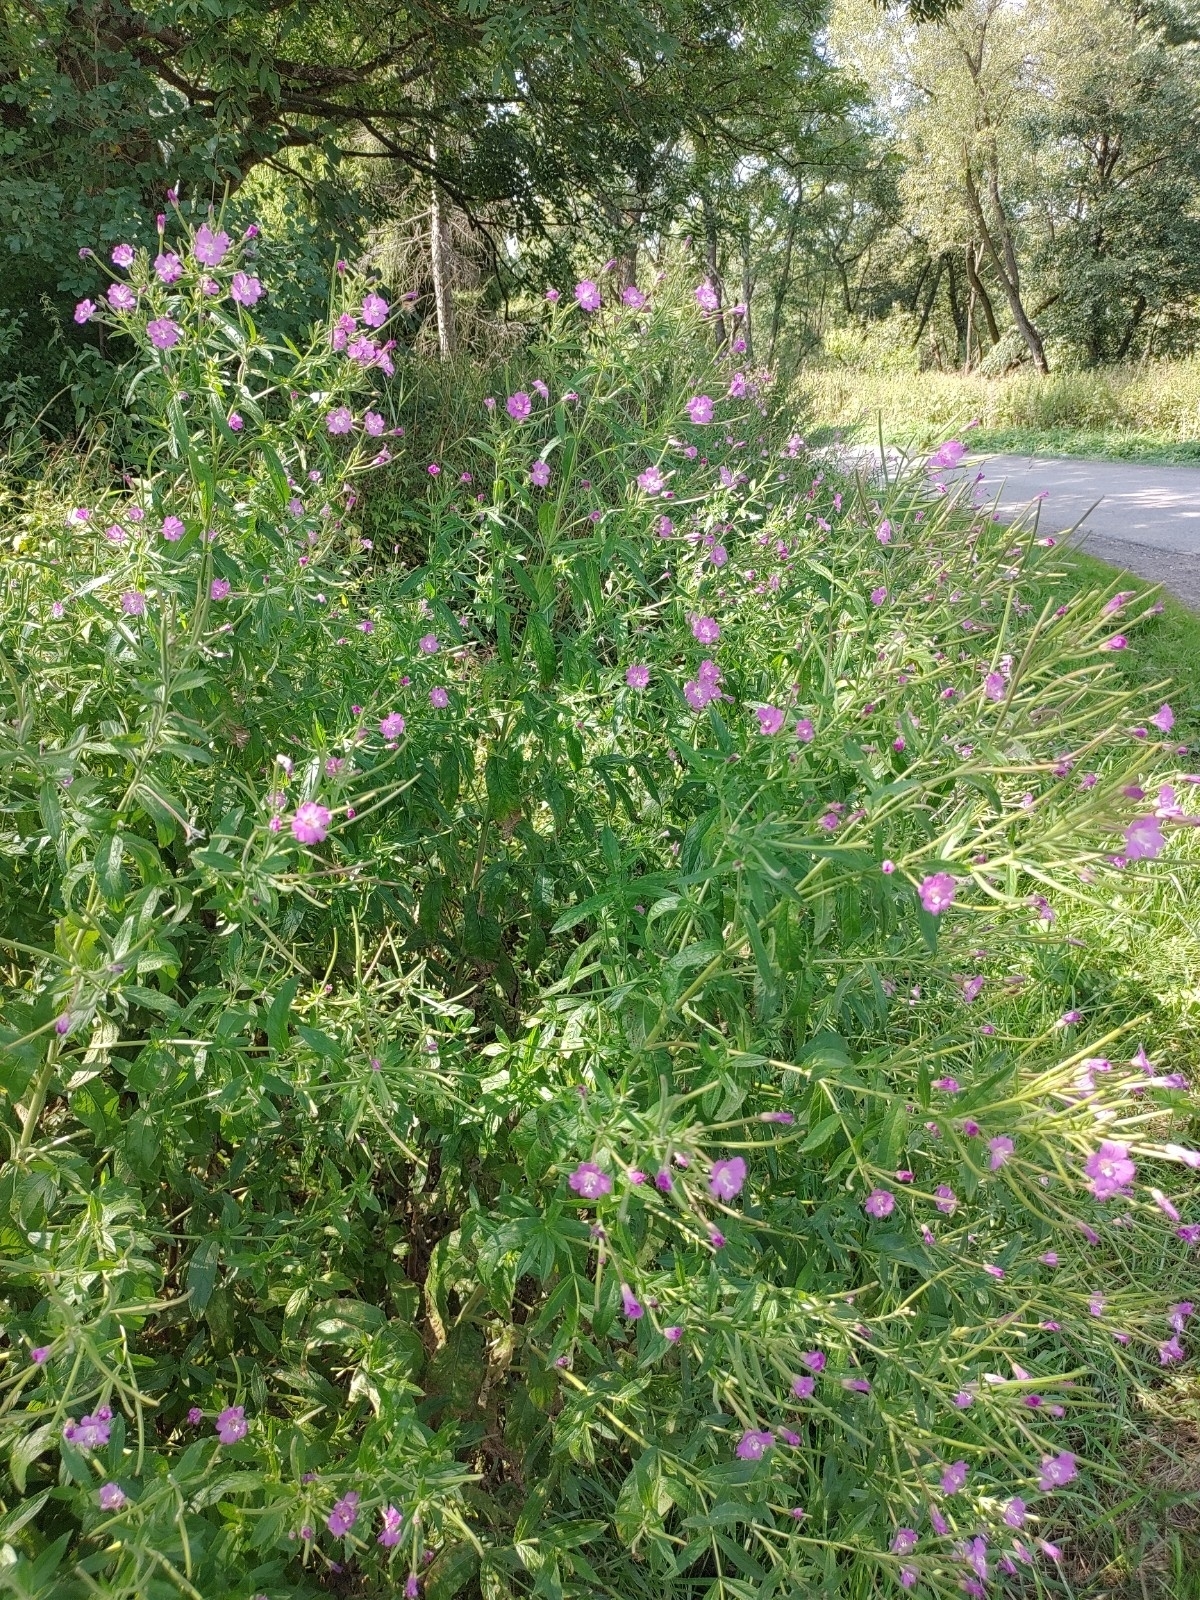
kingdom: Plantae
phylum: Tracheophyta
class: Magnoliopsida
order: Myrtales
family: Onagraceae
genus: Epilobium
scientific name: Epilobium hirsutum
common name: Great willowherb
